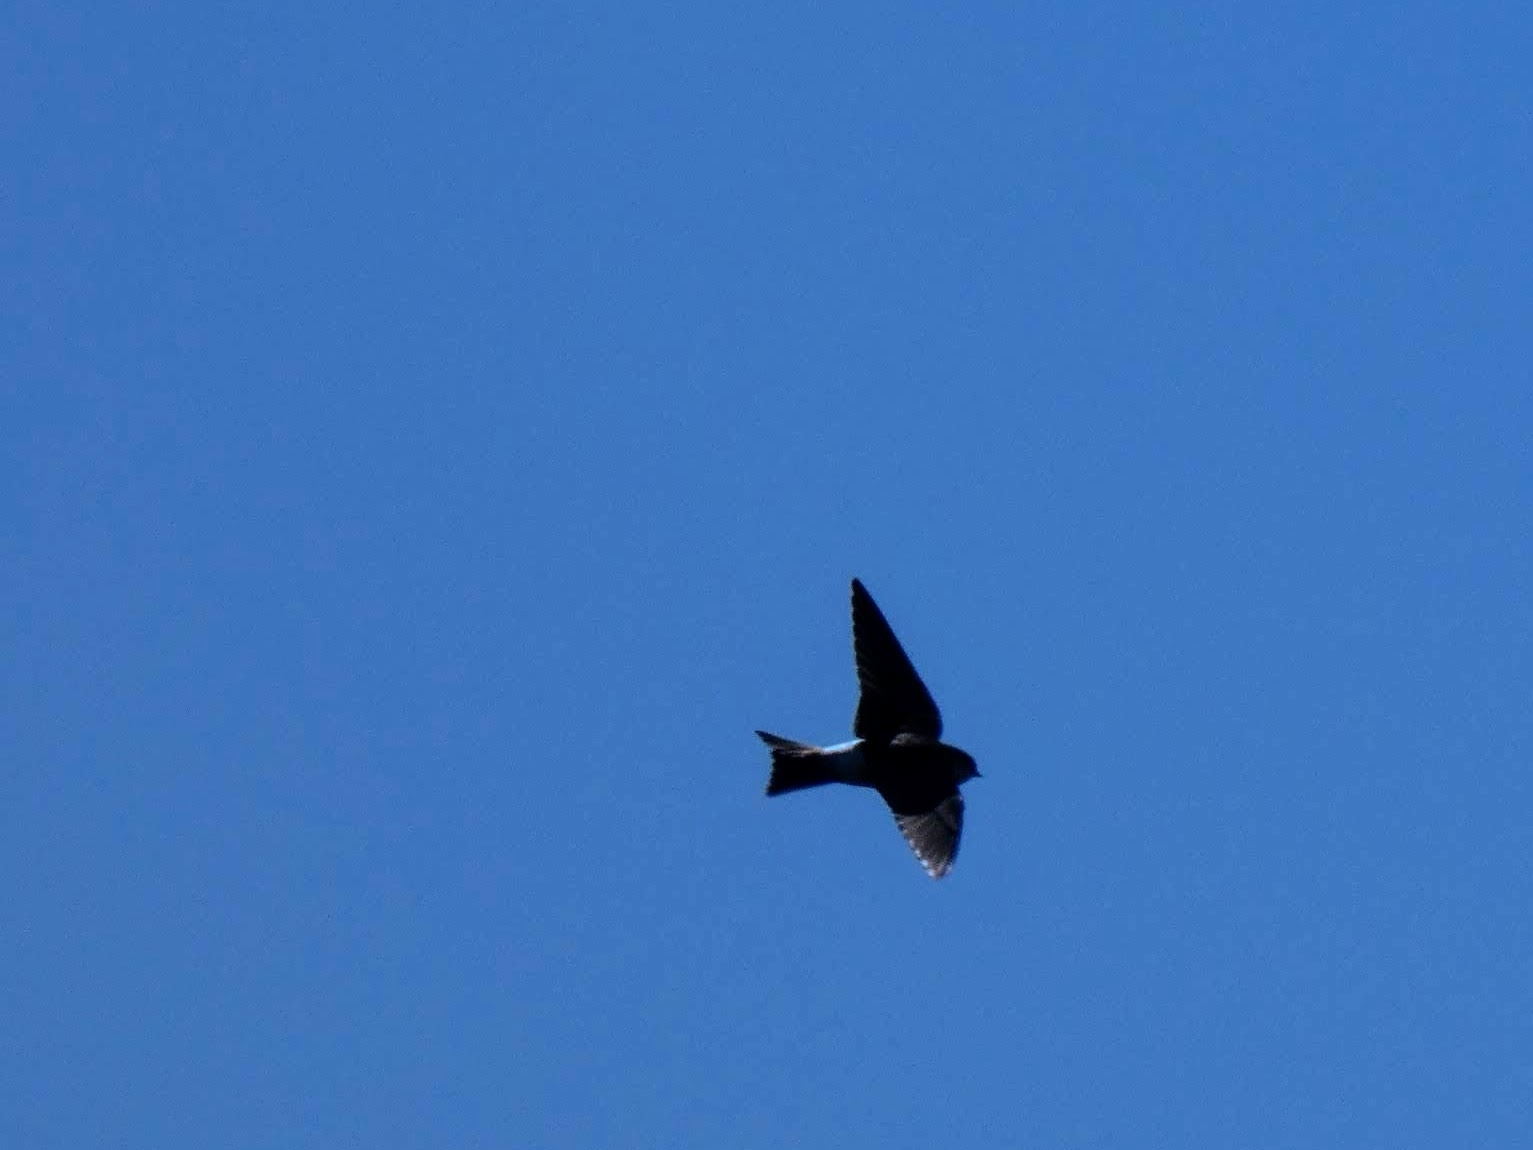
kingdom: Animalia
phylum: Chordata
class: Aves
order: Passeriformes
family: Hirundinidae
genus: Delichon
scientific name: Delichon urbicum
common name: Common house martin
